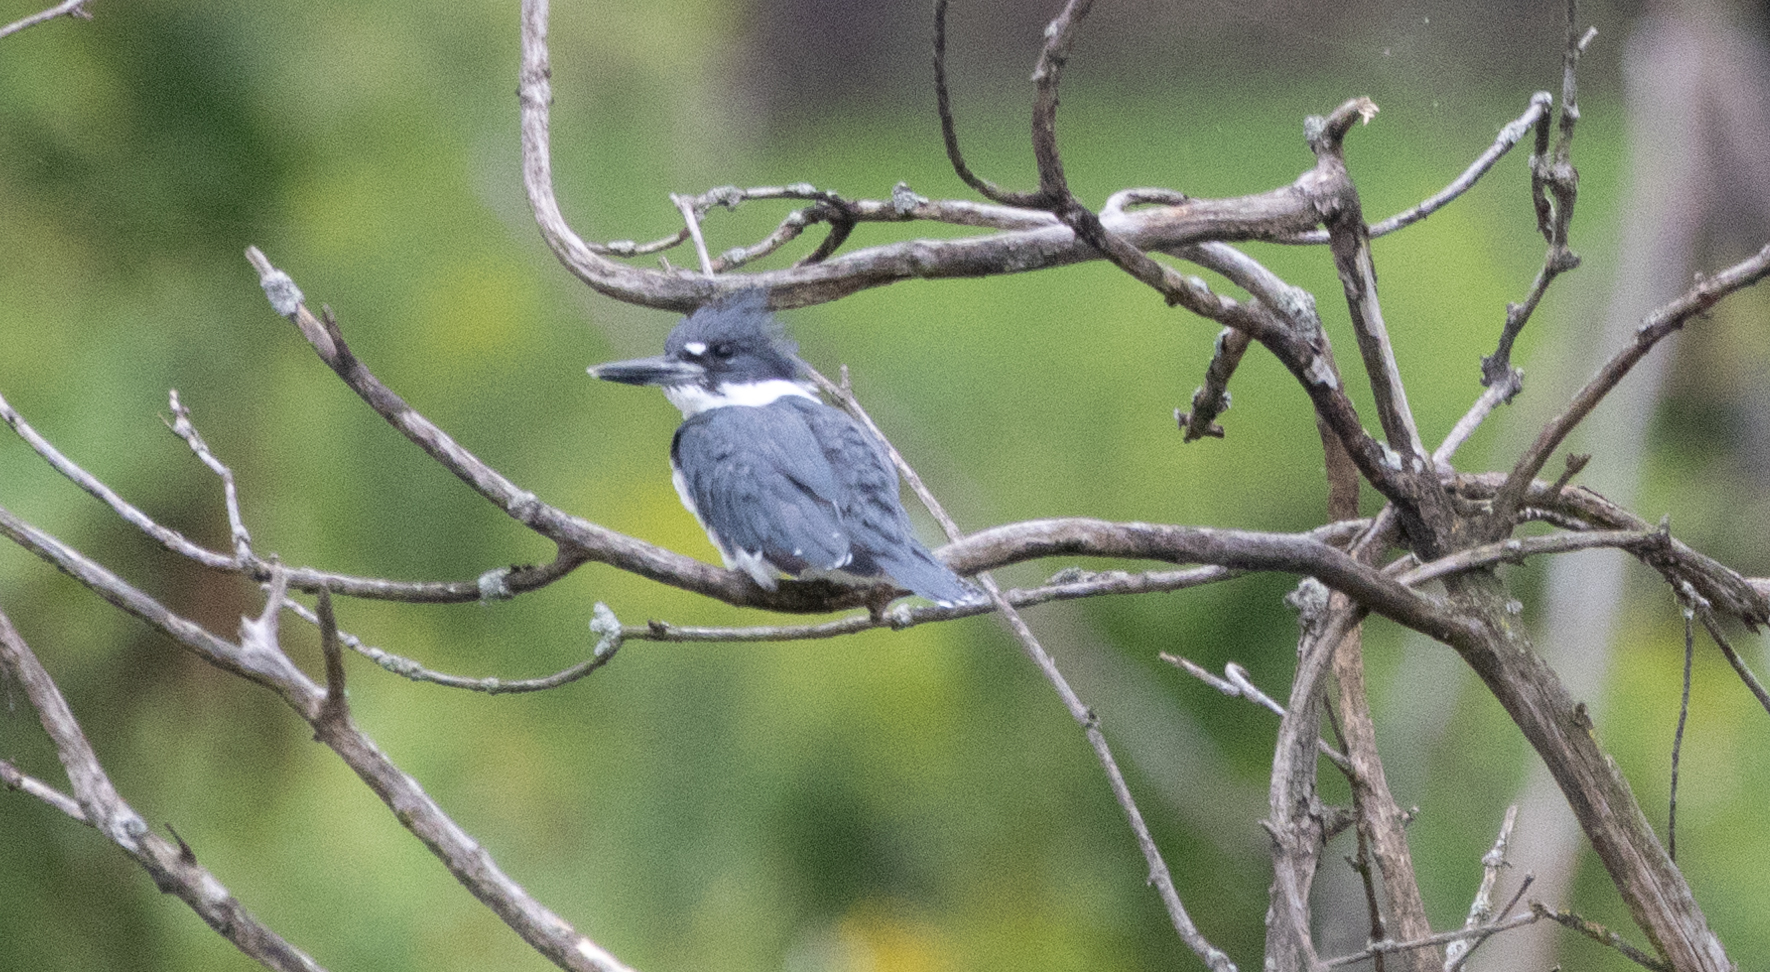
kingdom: Animalia
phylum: Chordata
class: Aves
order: Coraciiformes
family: Alcedinidae
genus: Megaceryle
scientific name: Megaceryle alcyon
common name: Belted kingfisher
